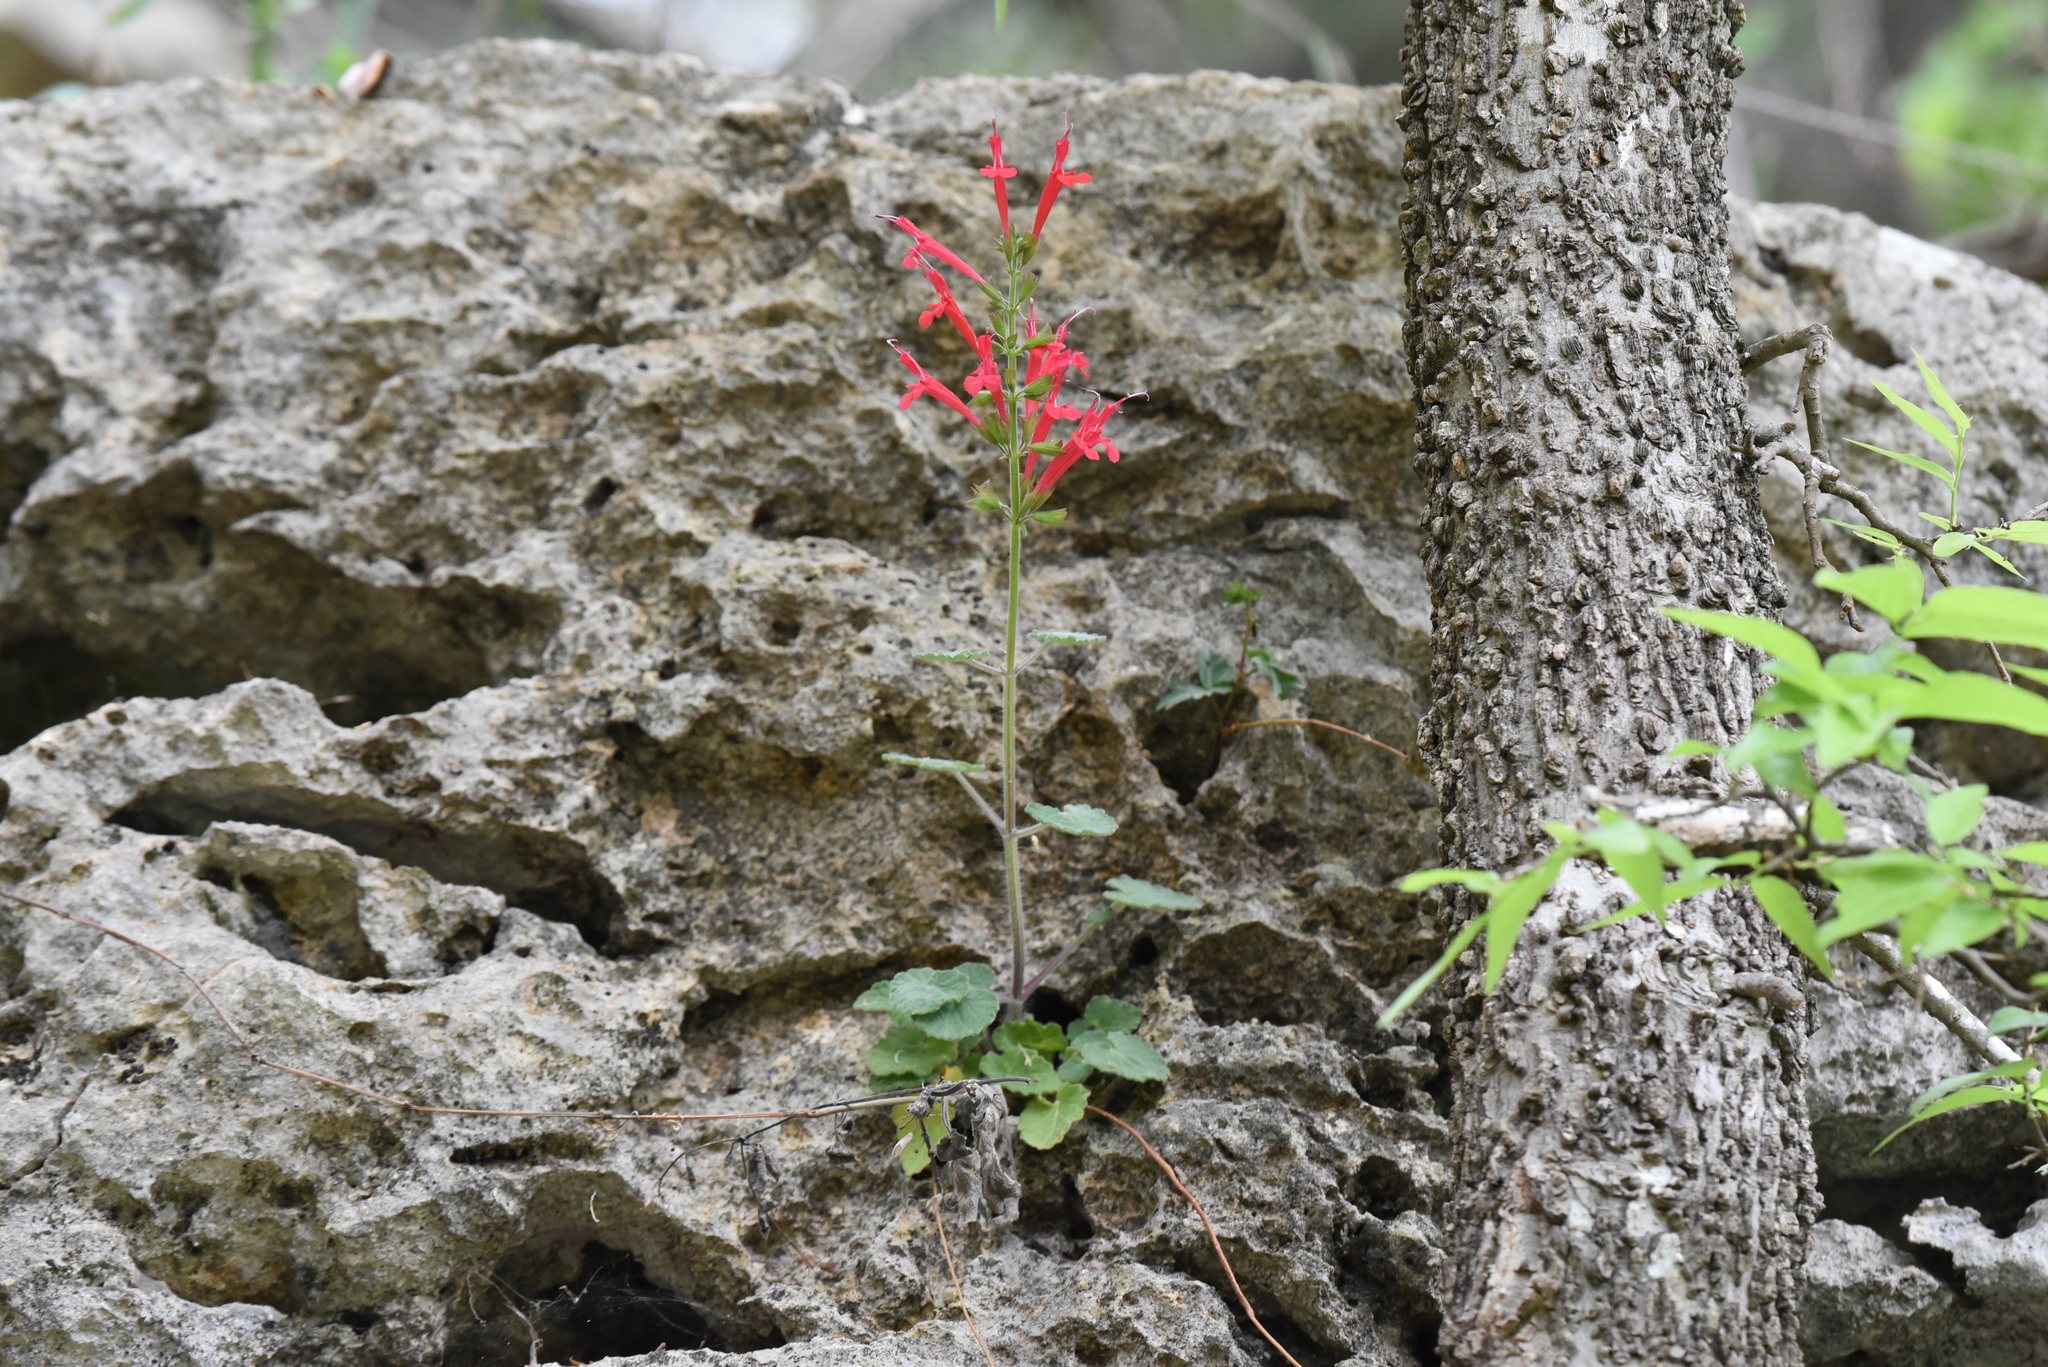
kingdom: Plantae
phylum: Tracheophyta
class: Magnoliopsida
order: Lamiales
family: Lamiaceae
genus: Salvia
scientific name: Salvia roemeriana
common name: Cedar sage
